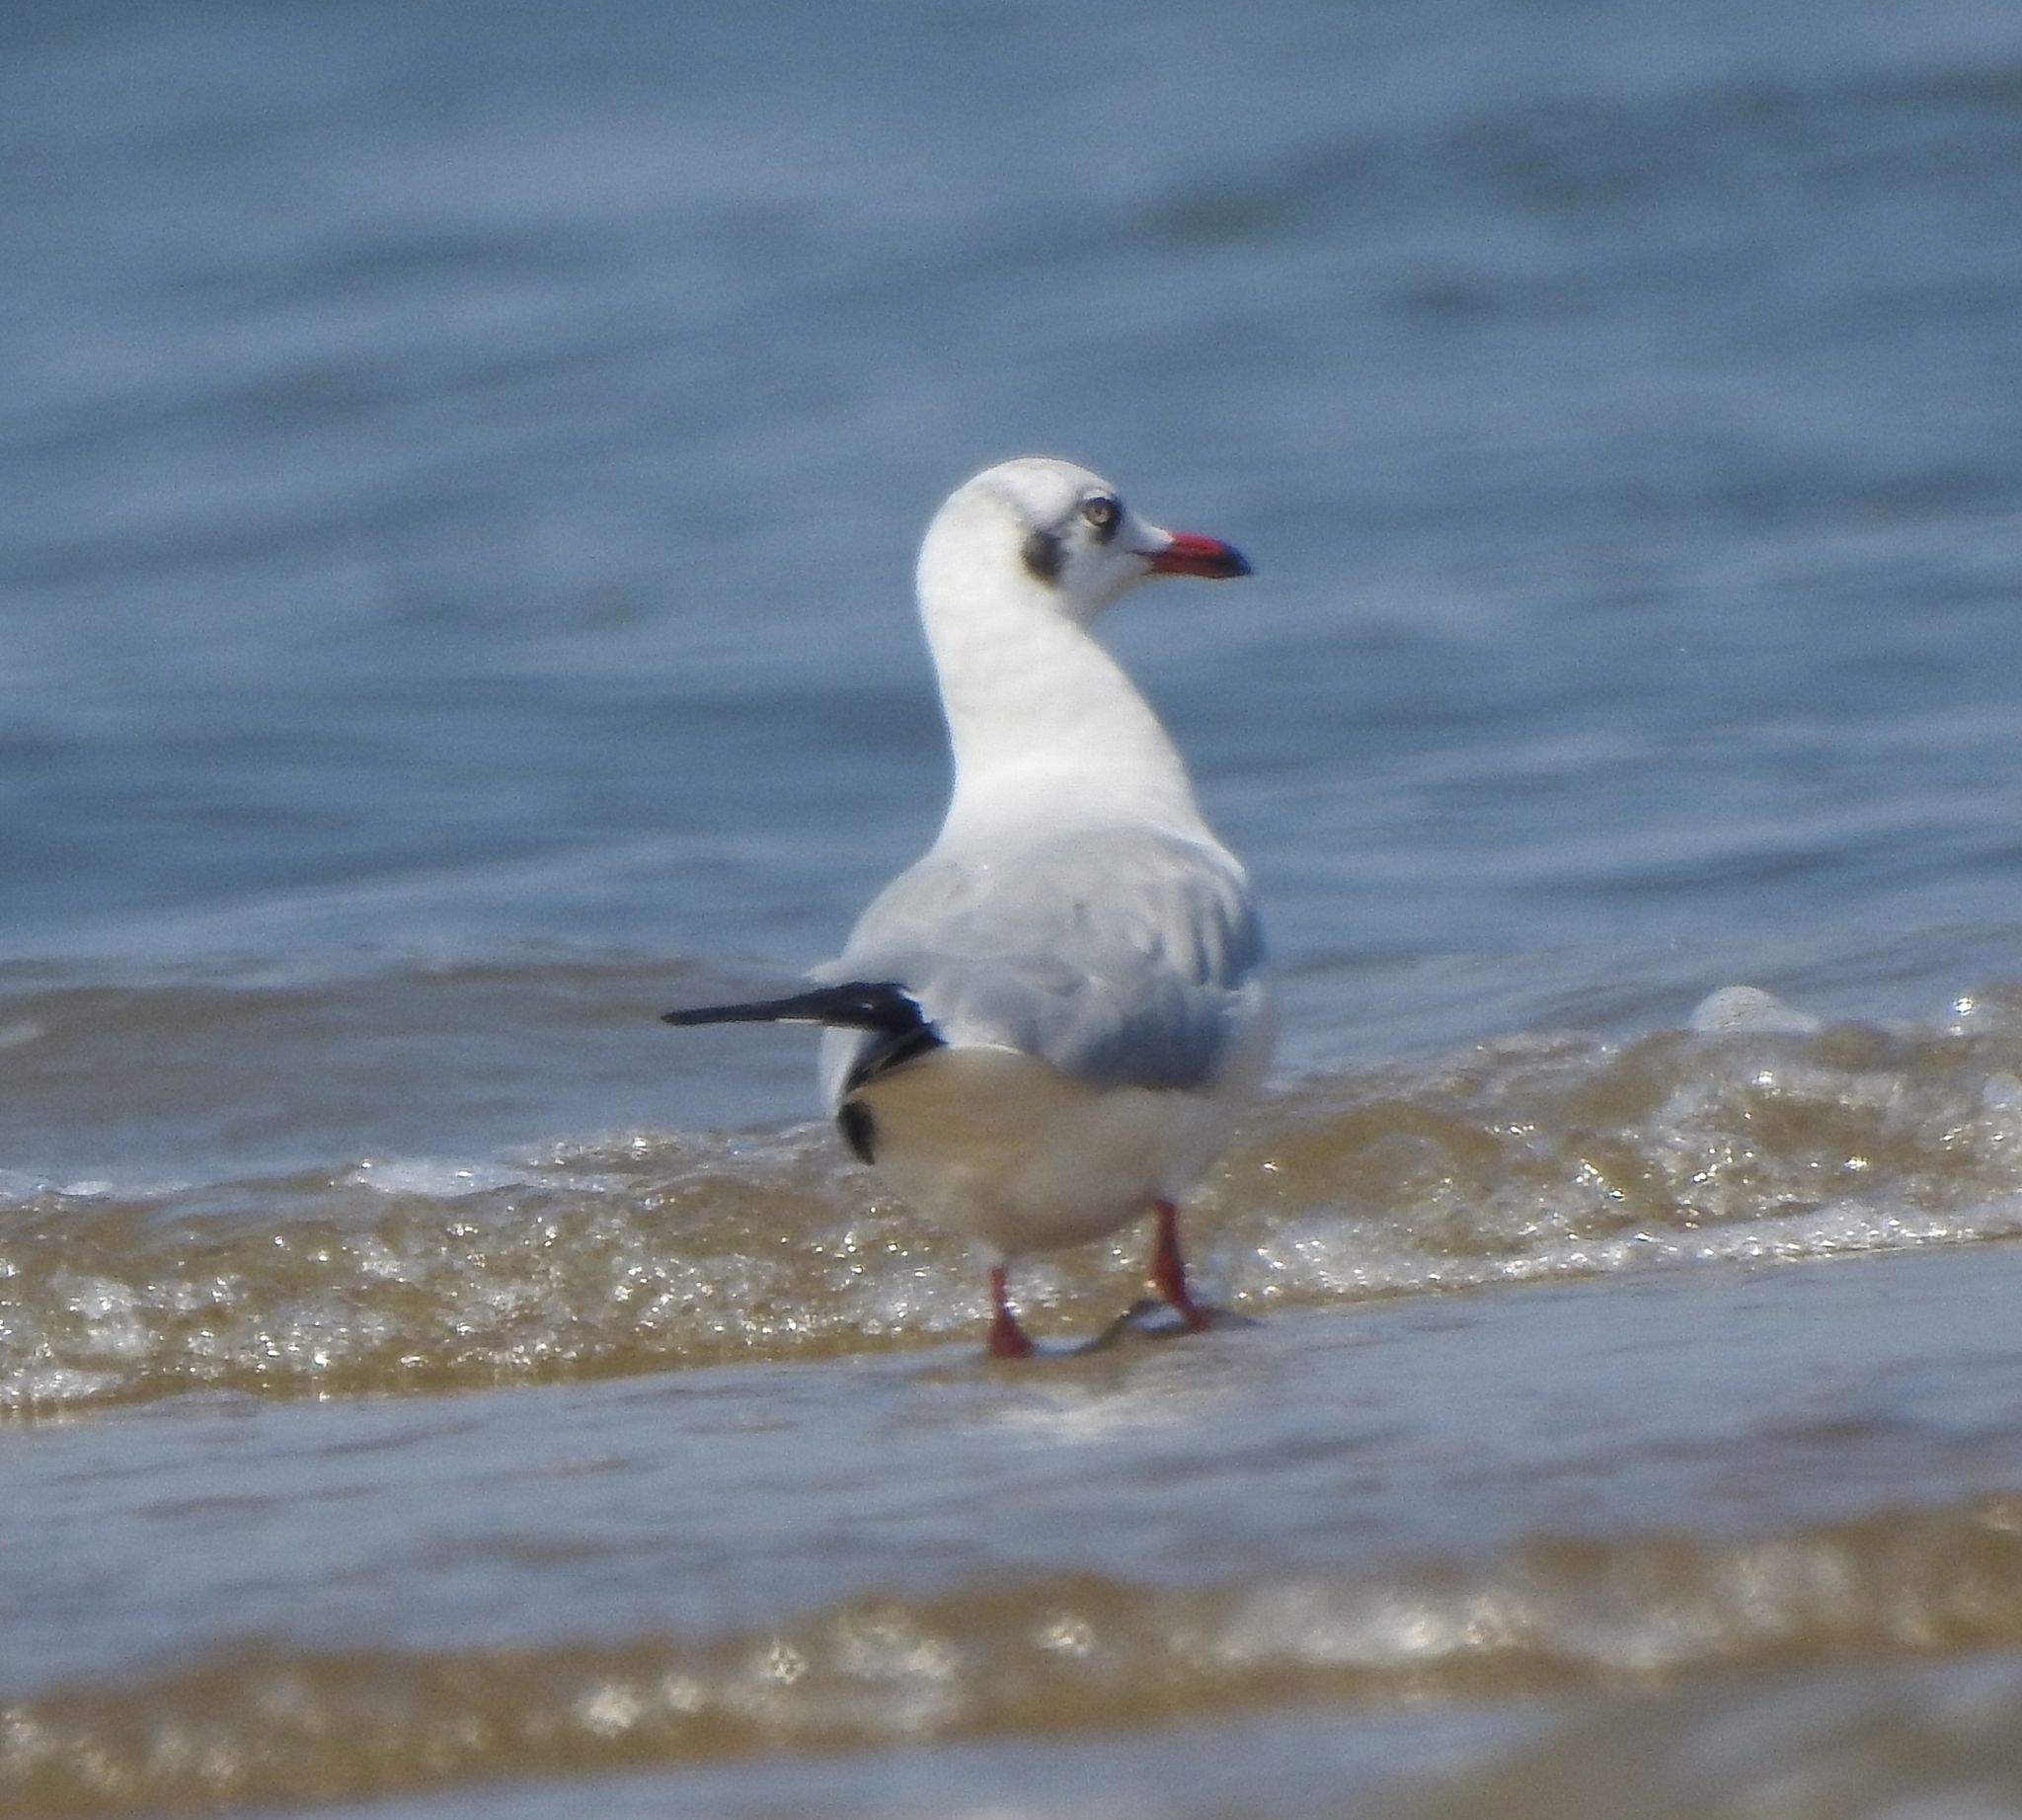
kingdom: Animalia
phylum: Chordata
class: Aves
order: Charadriiformes
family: Laridae
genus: Chroicocephalus
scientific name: Chroicocephalus brunnicephalus
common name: Brown-headed gull
